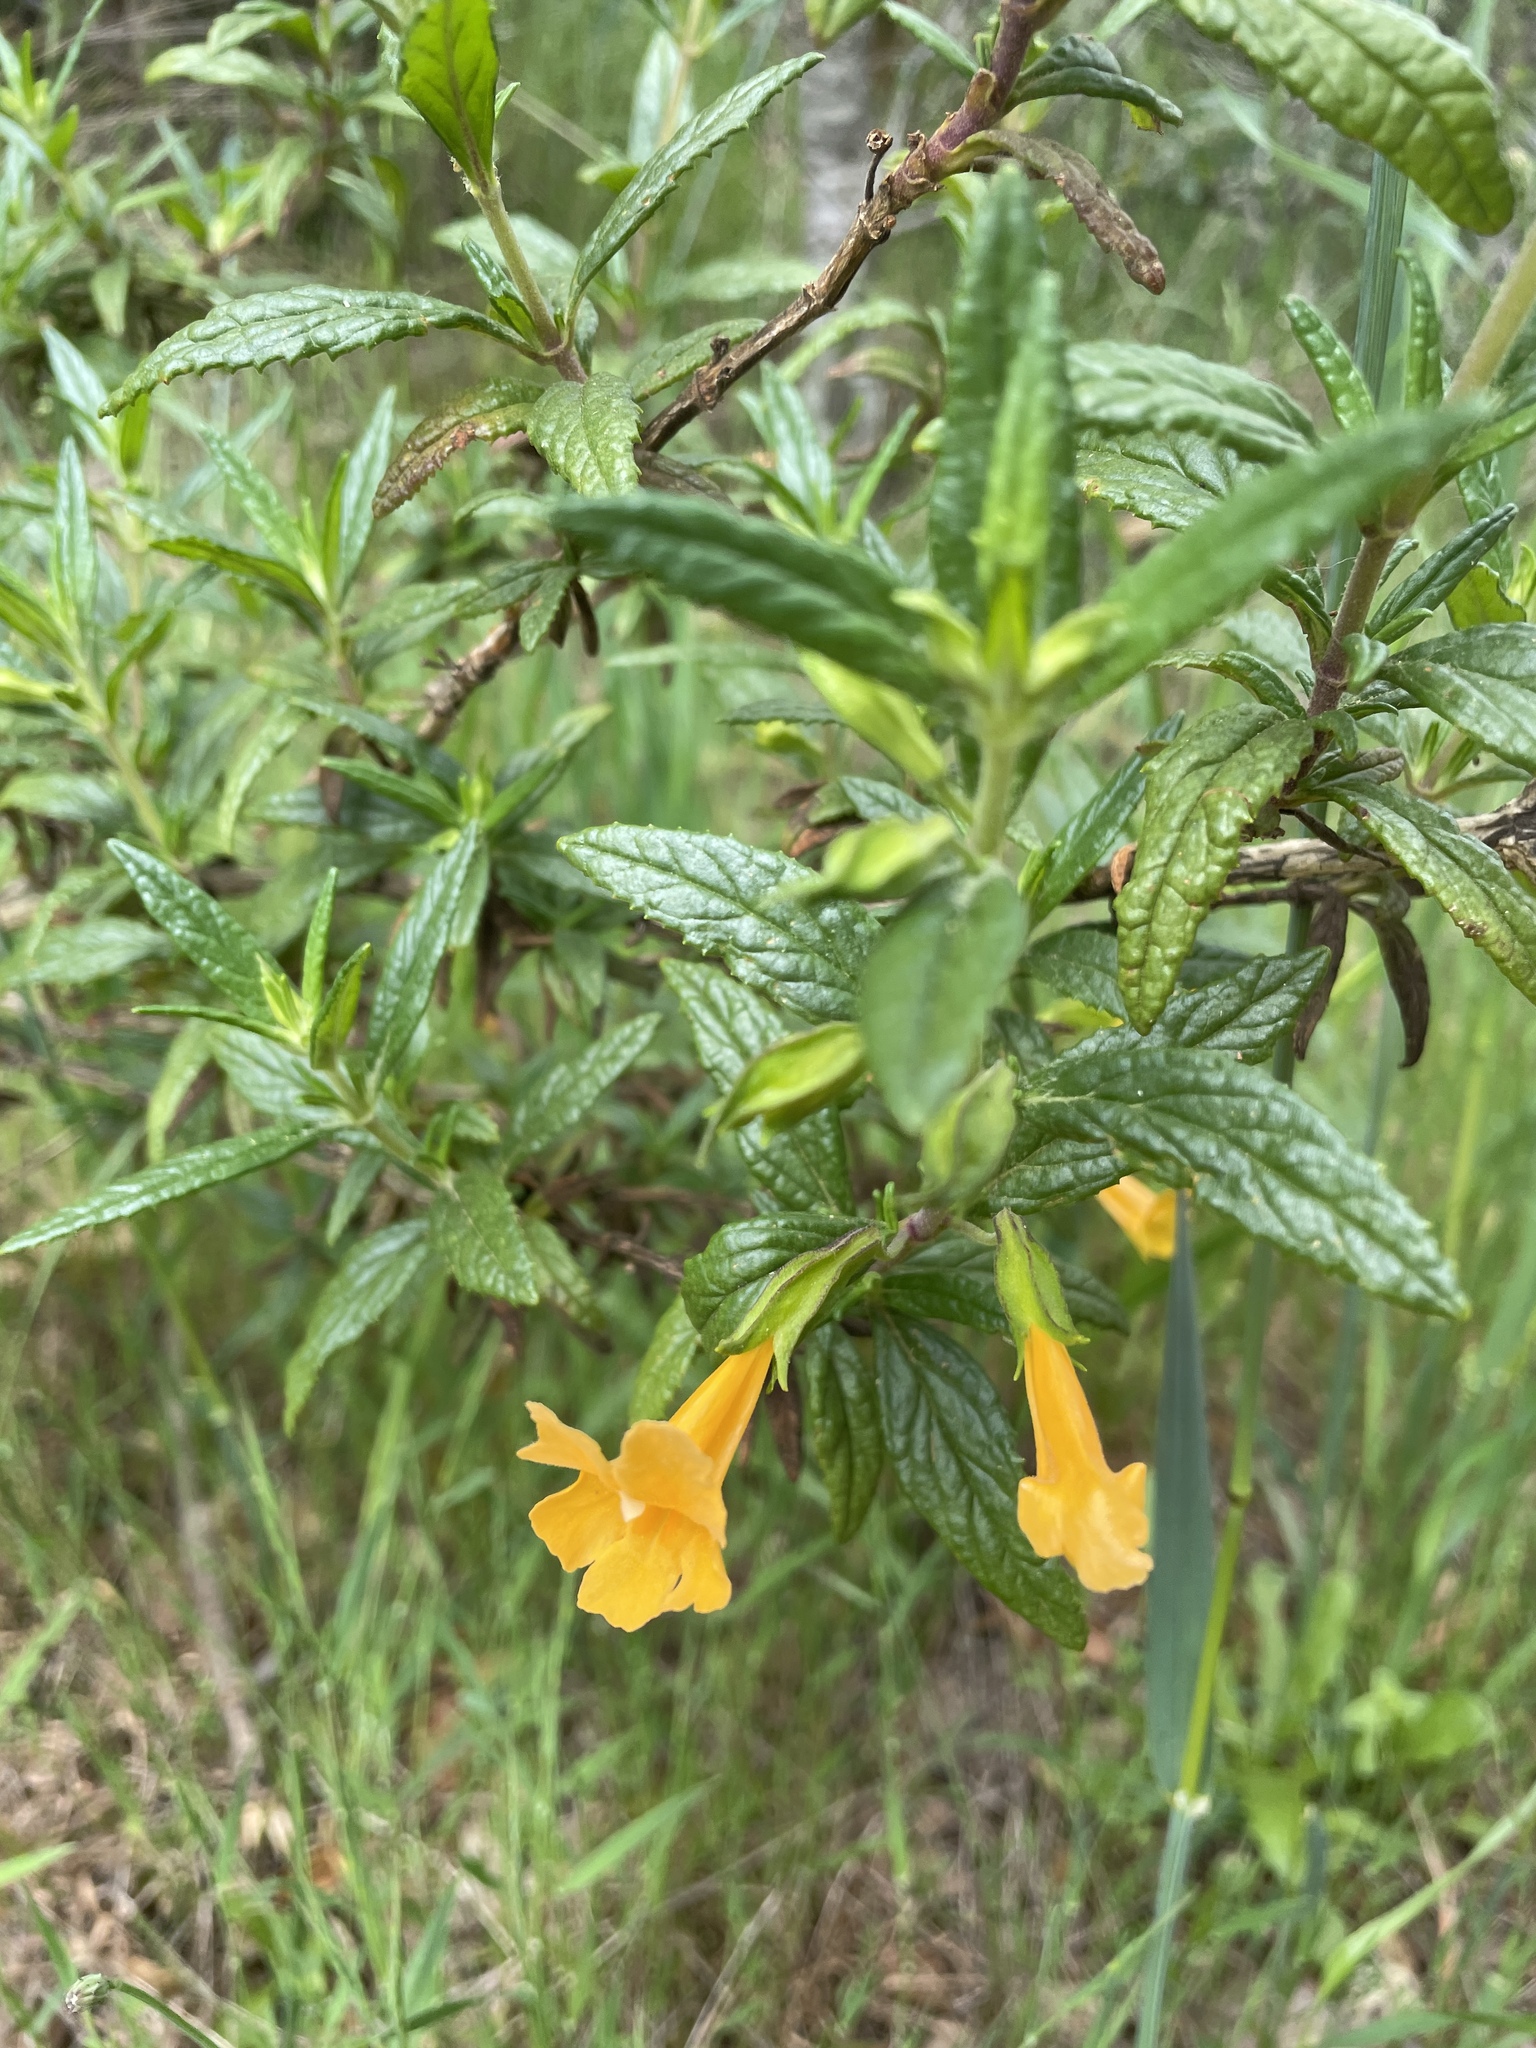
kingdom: Plantae
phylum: Tracheophyta
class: Magnoliopsida
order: Lamiales
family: Phrymaceae
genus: Diplacus
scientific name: Diplacus aurantiacus
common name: Bush monkey-flower
